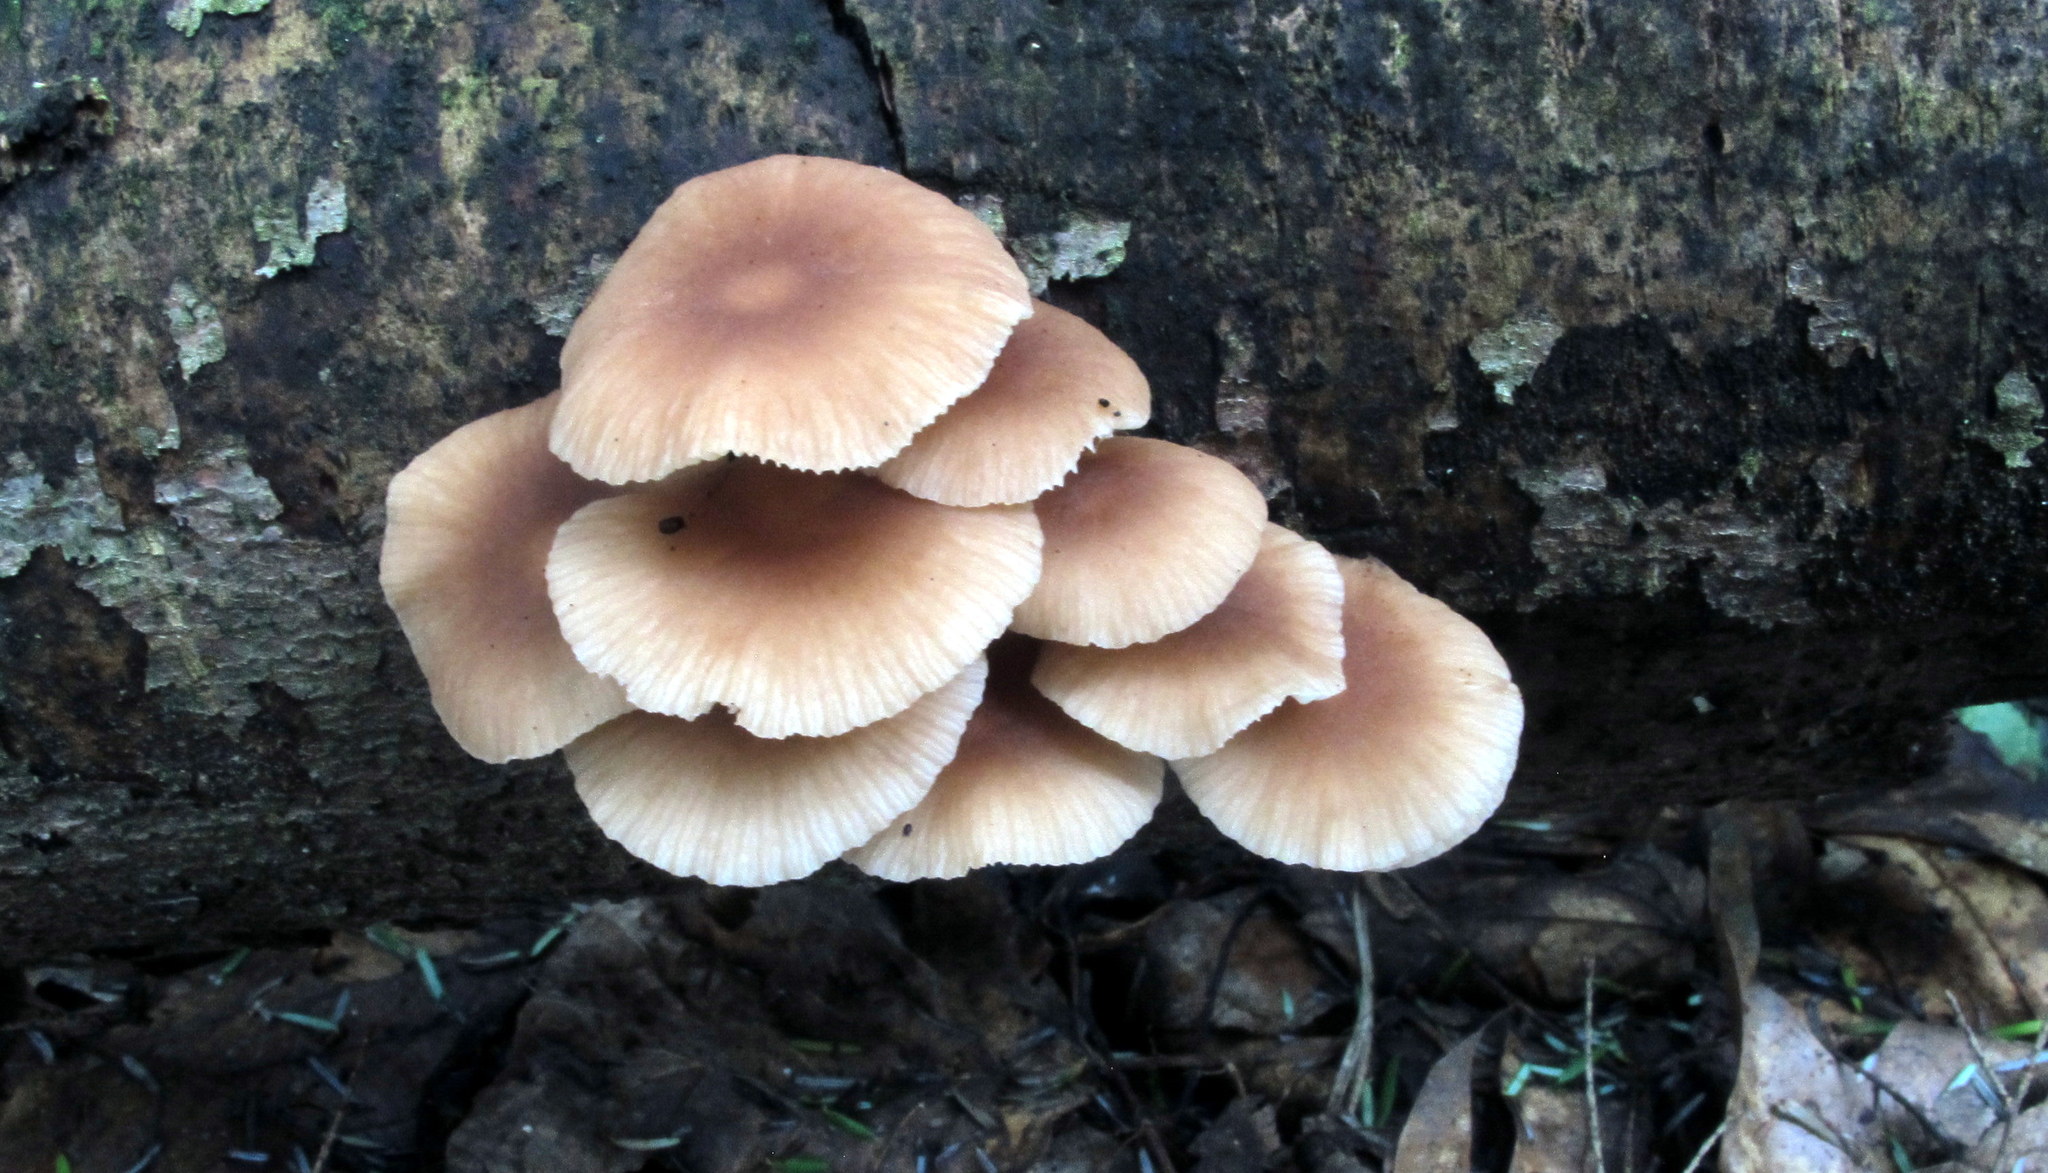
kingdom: Fungi
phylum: Basidiomycota
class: Agaricomycetes
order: Agaricales
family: Omphalotaceae
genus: Collybiopsis
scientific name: Collybiopsis dichroa
